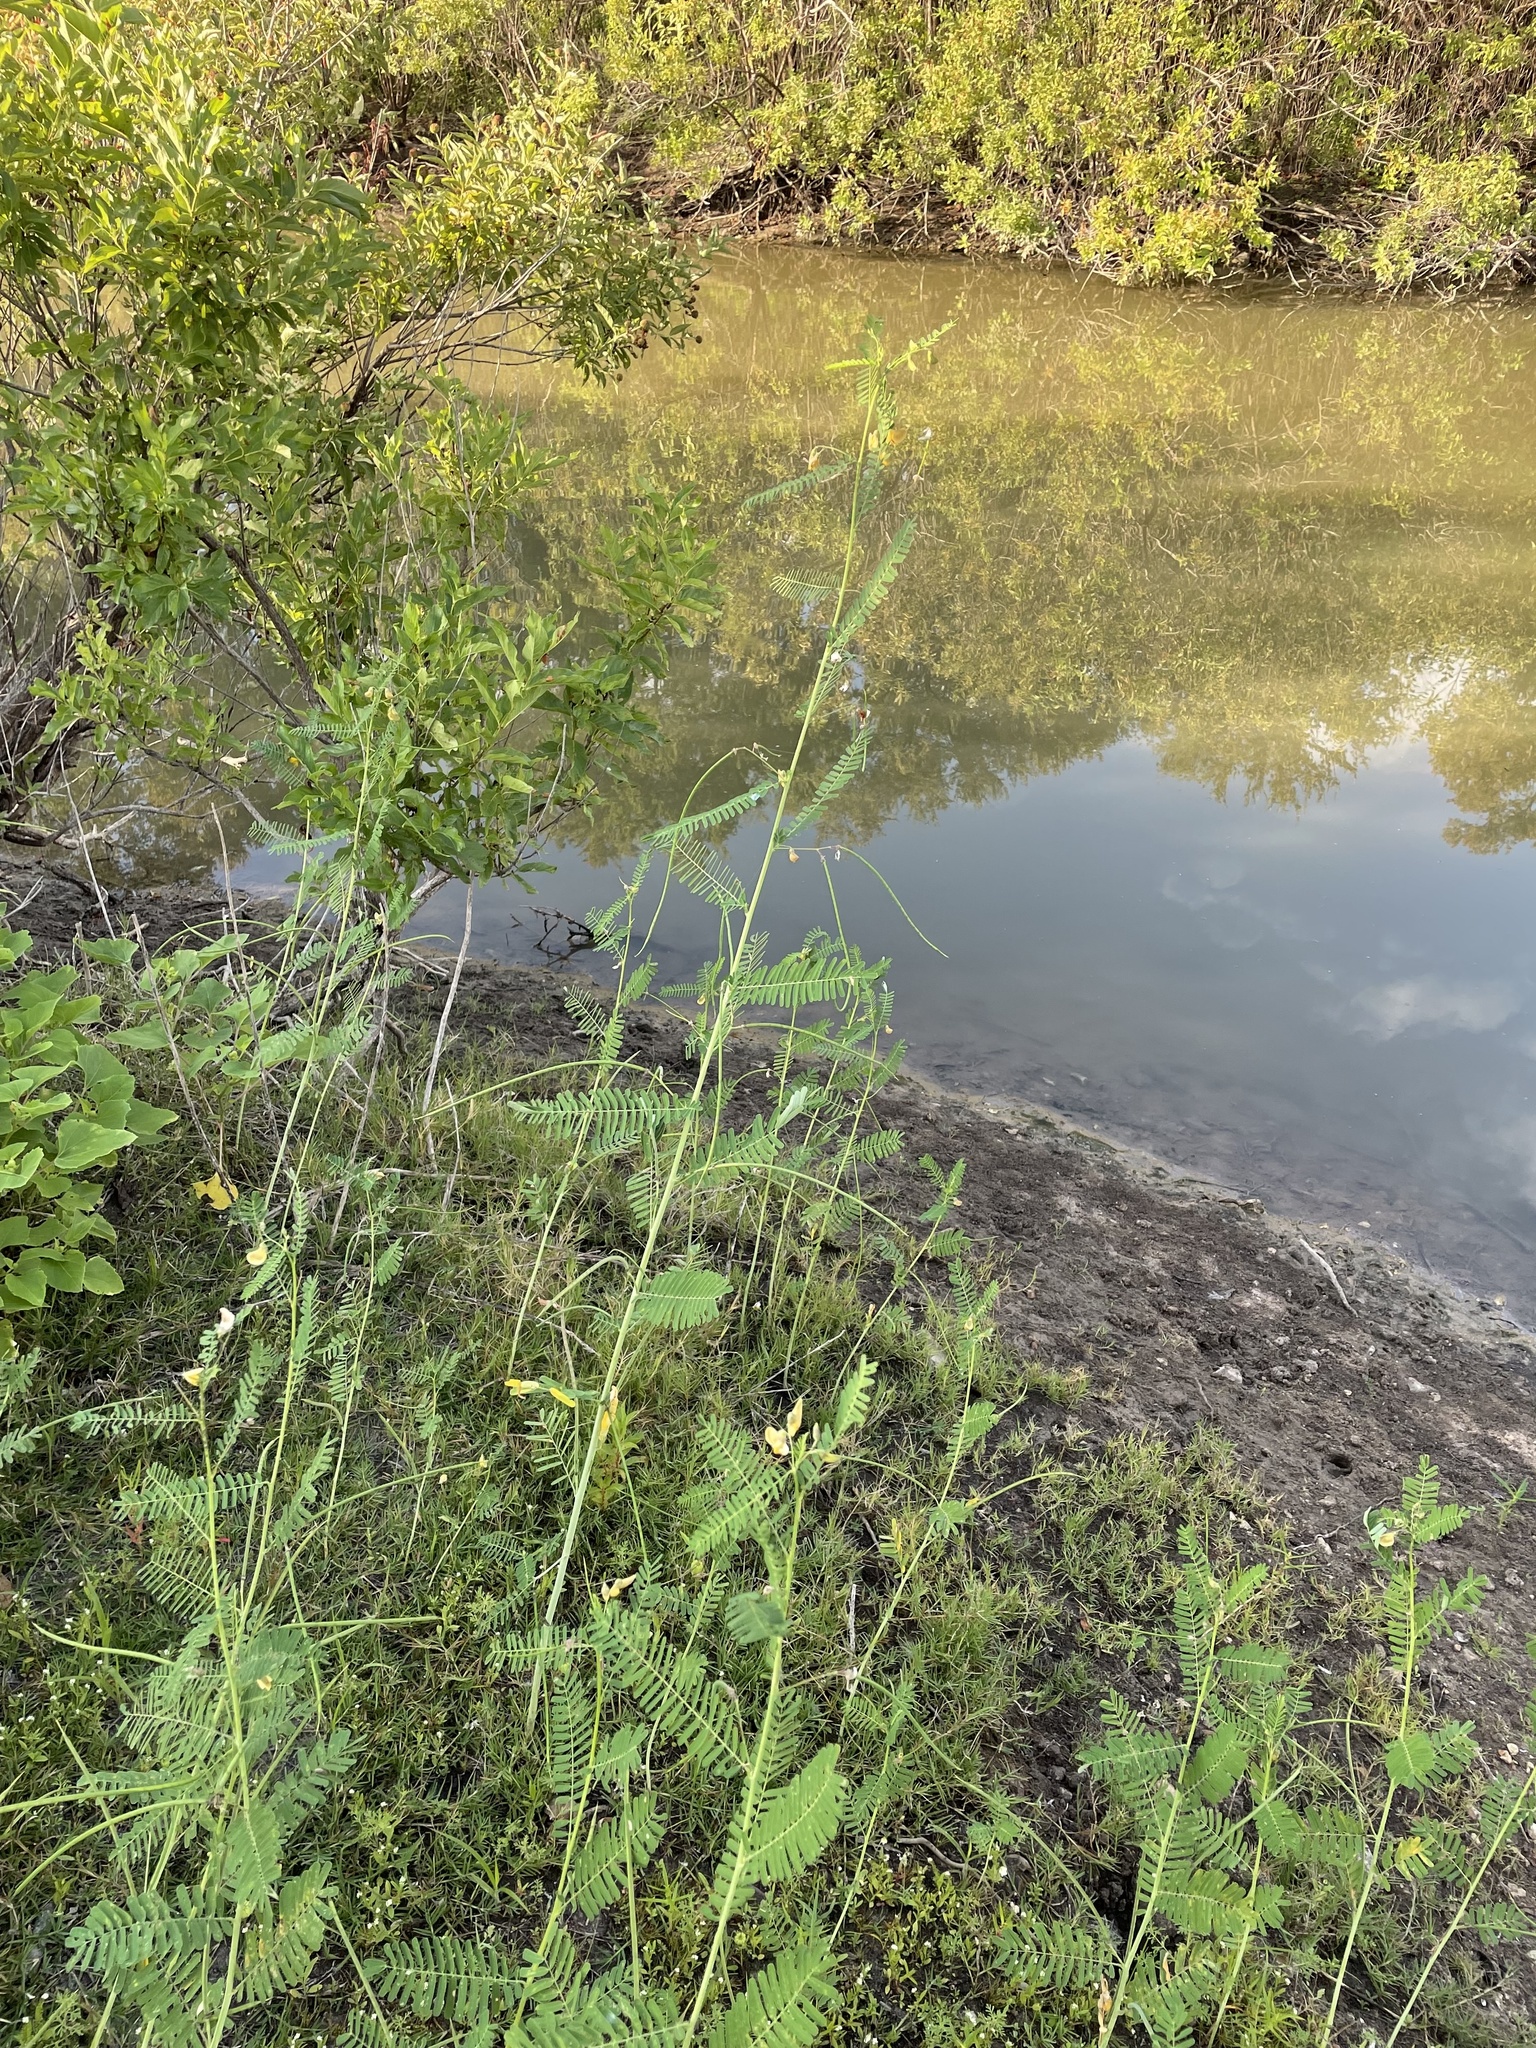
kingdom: Plantae
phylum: Tracheophyta
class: Magnoliopsida
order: Fabales
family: Fabaceae
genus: Sesbania
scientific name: Sesbania herbacea
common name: Bigpod sesbania
